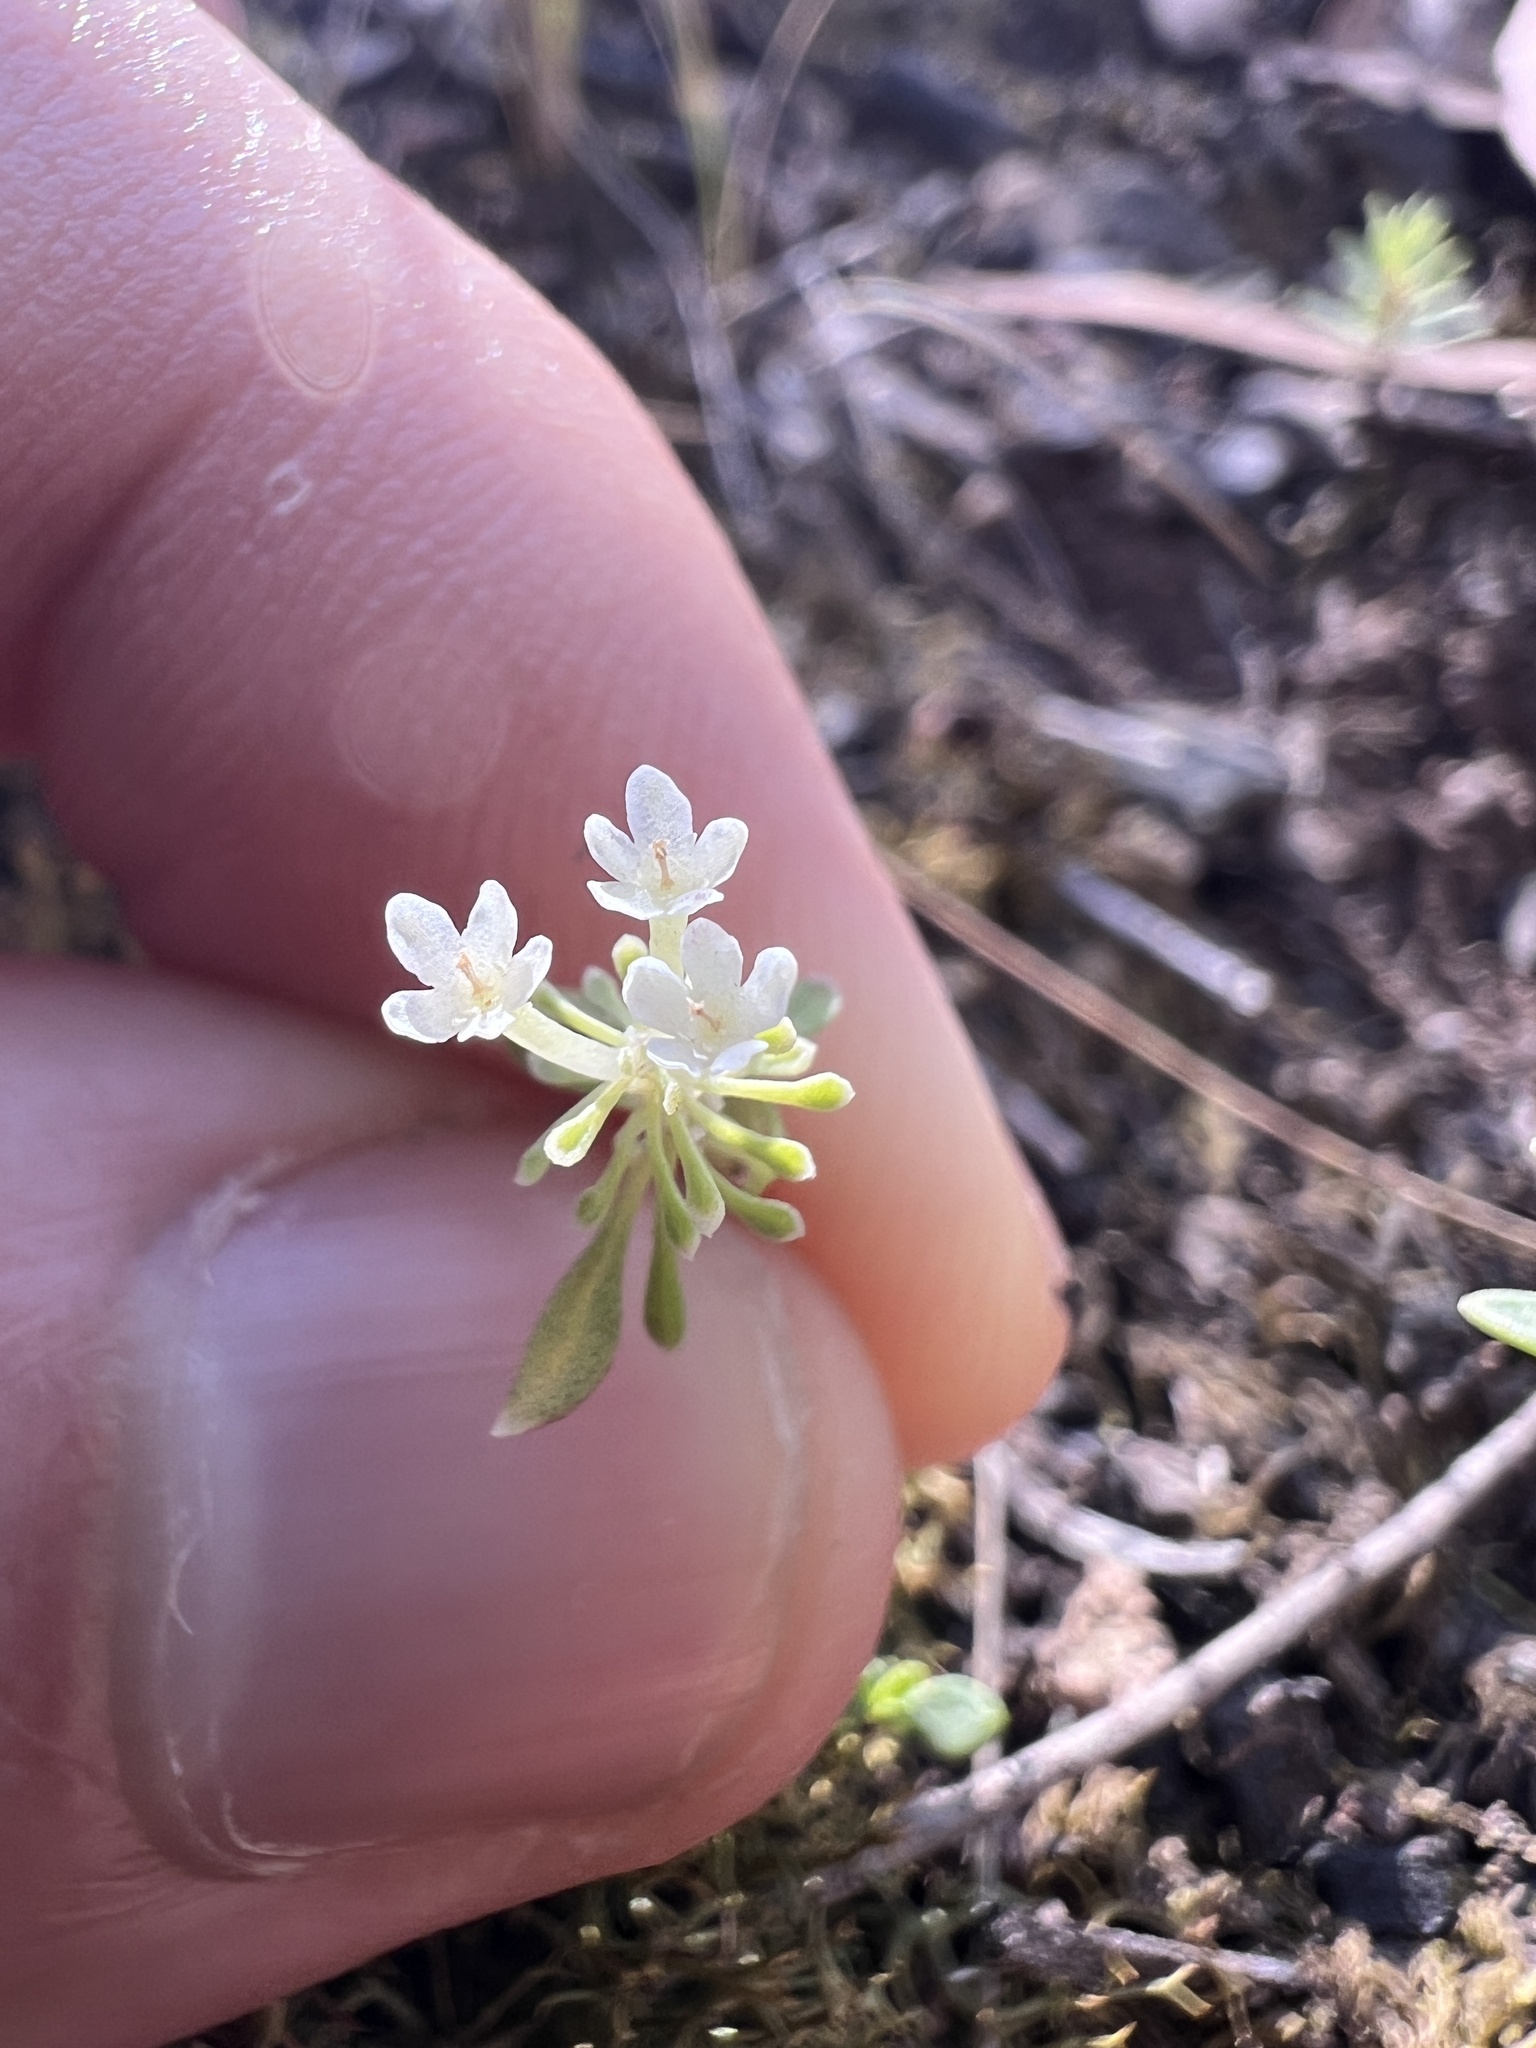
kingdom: Plantae
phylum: Tracheophyta
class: Magnoliopsida
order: Malpighiales
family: Phyllanthaceae
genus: Poranthera
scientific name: Poranthera microphylla
